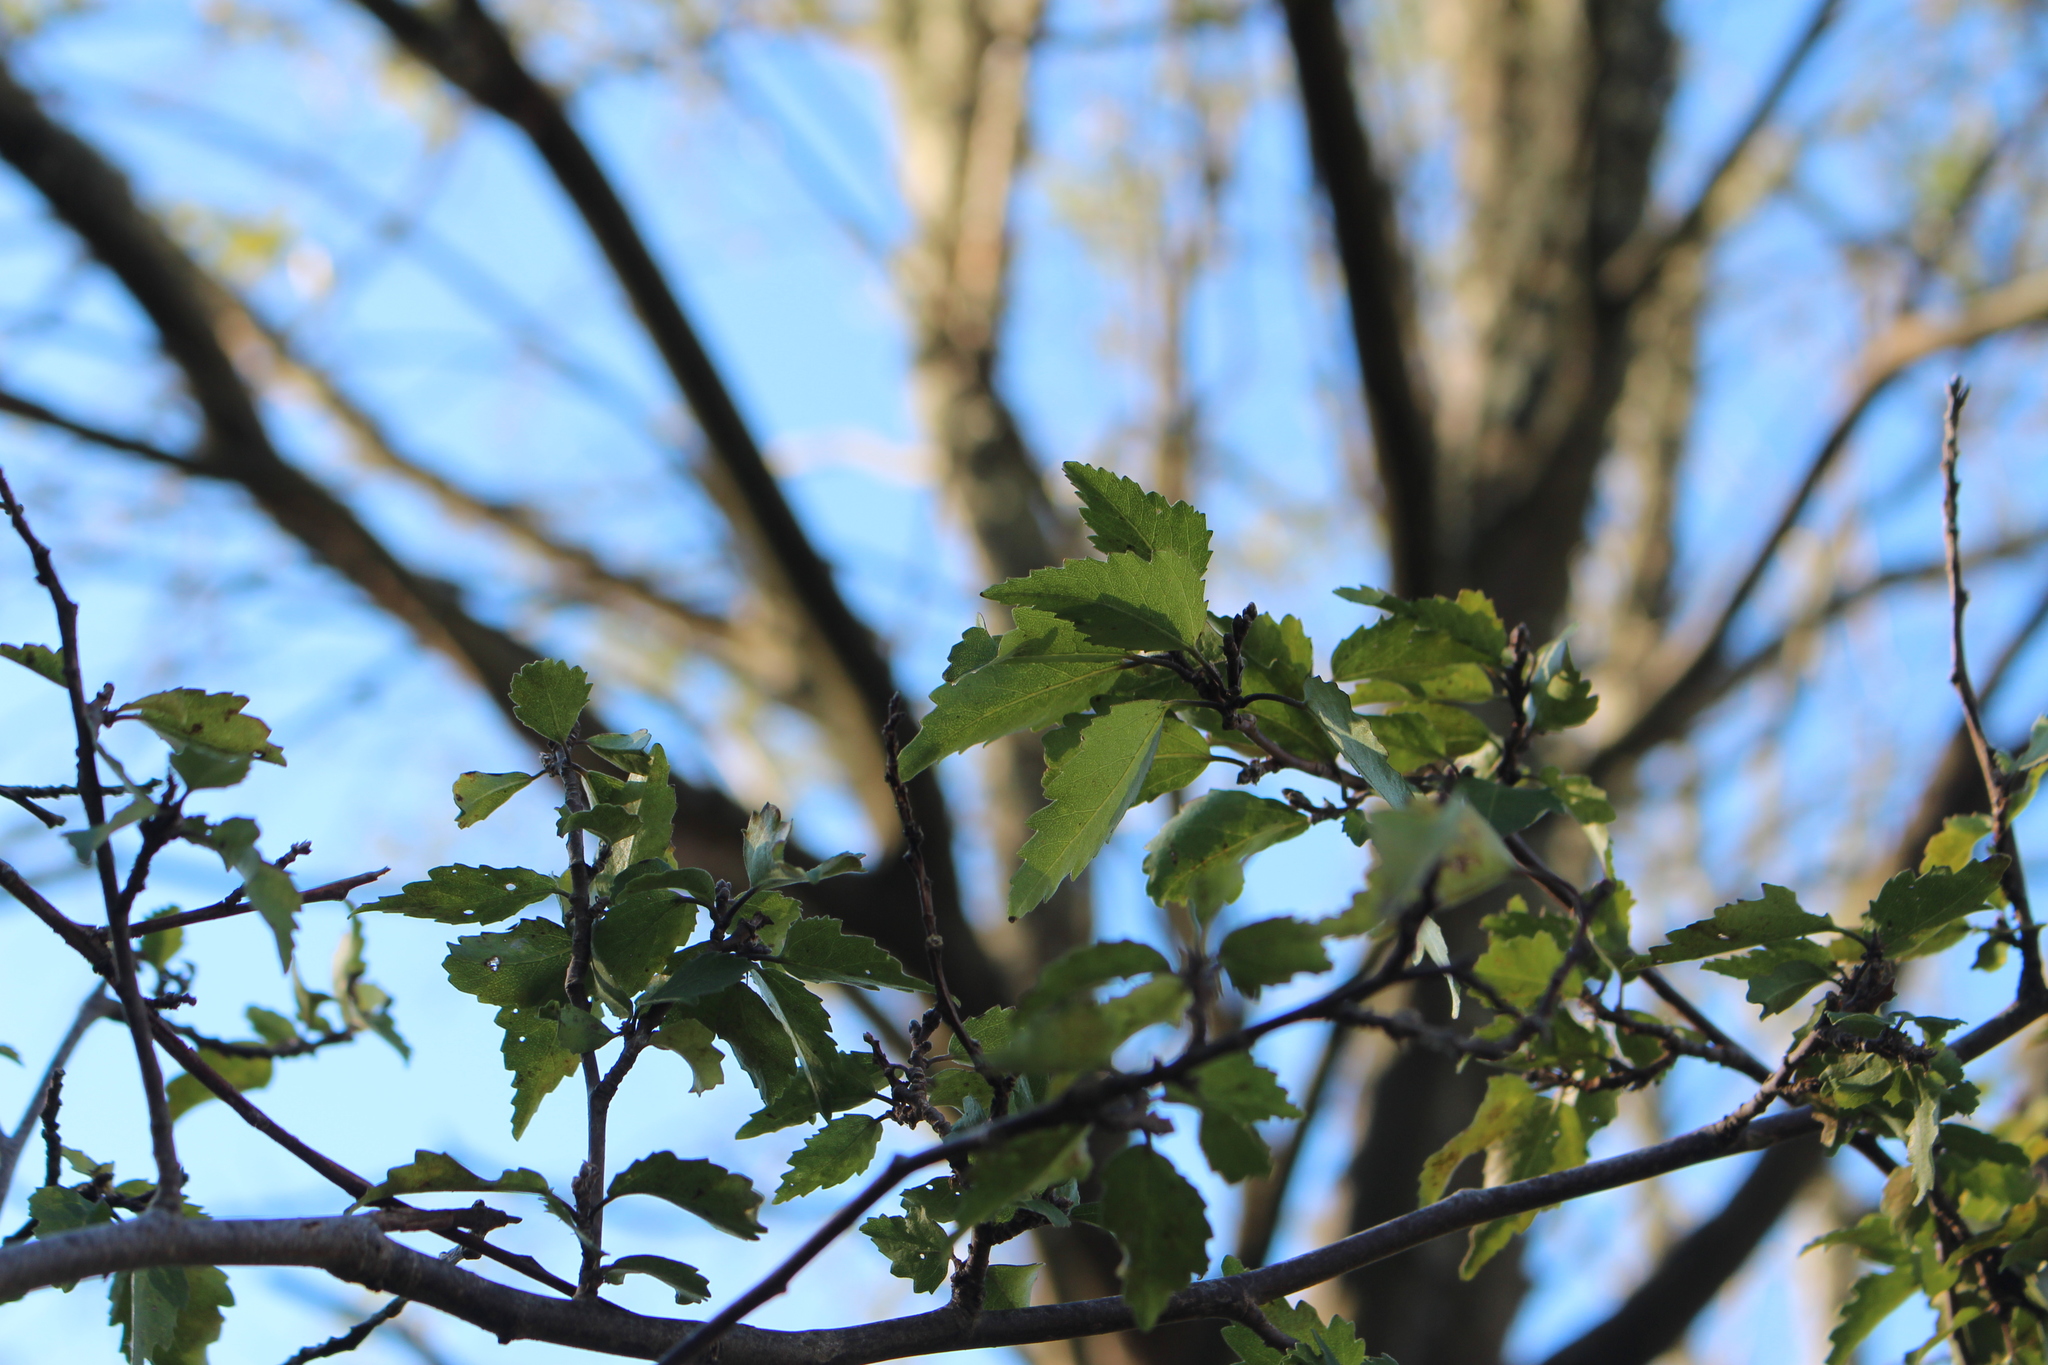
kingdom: Plantae
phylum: Tracheophyta
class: Magnoliopsida
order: Malvales
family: Malvaceae
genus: Plagianthus
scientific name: Plagianthus regius
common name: Manatu
